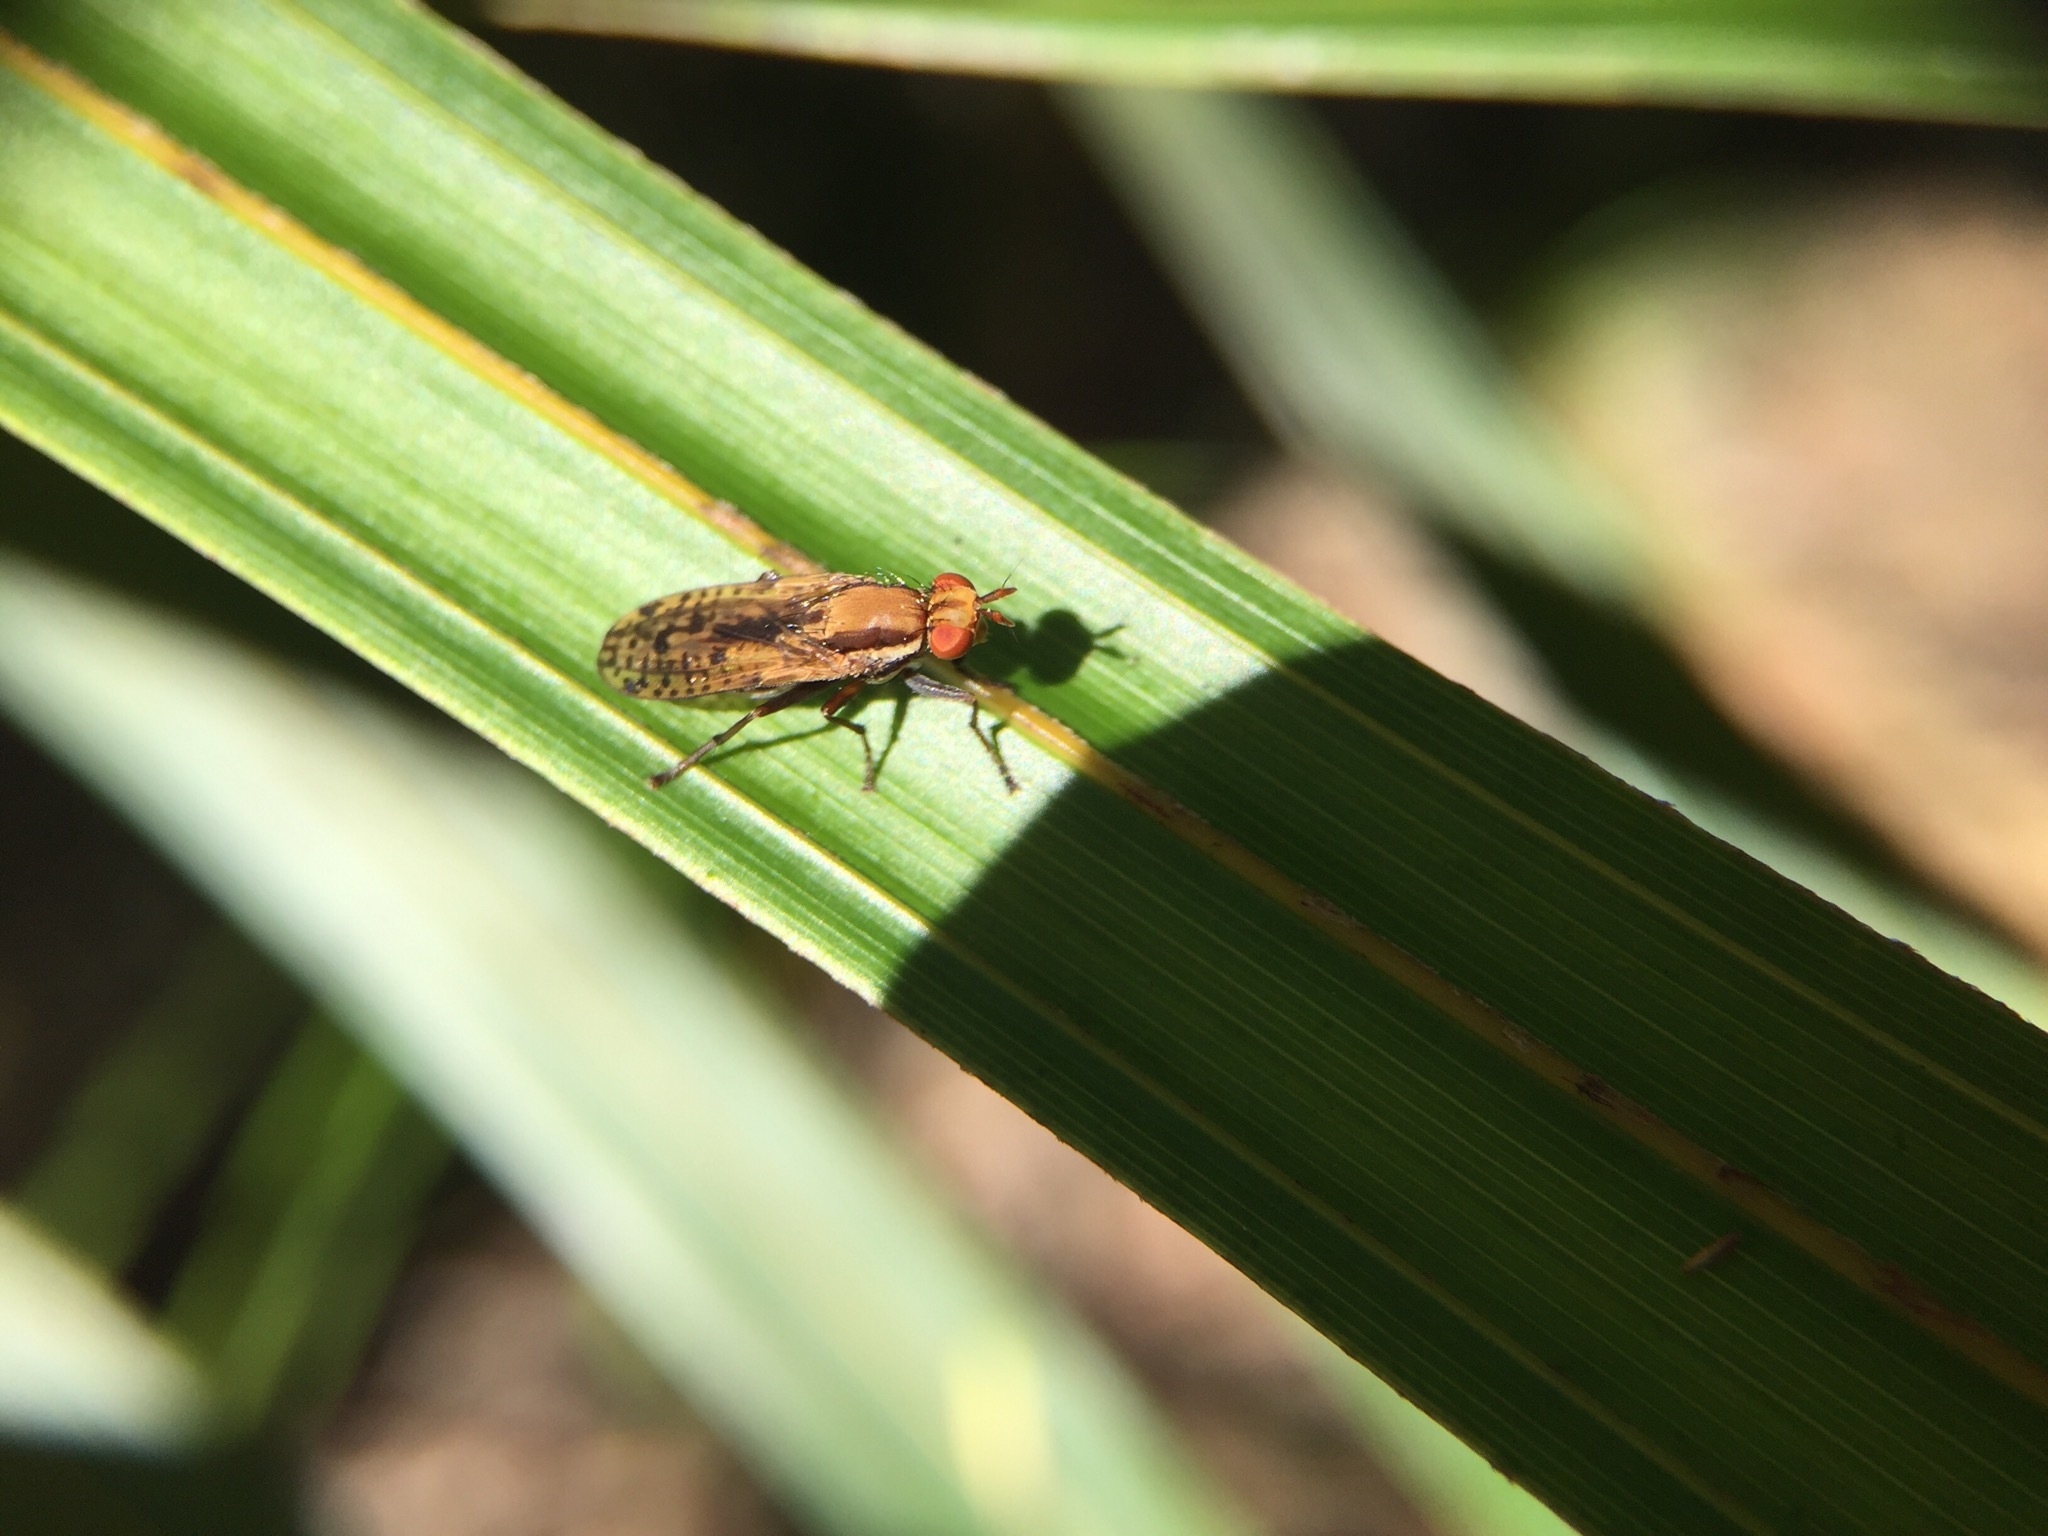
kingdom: Animalia
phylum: Arthropoda
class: Insecta
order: Diptera
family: Sciomyzidae
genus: Neolimnia
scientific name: Neolimnia tranquilla
